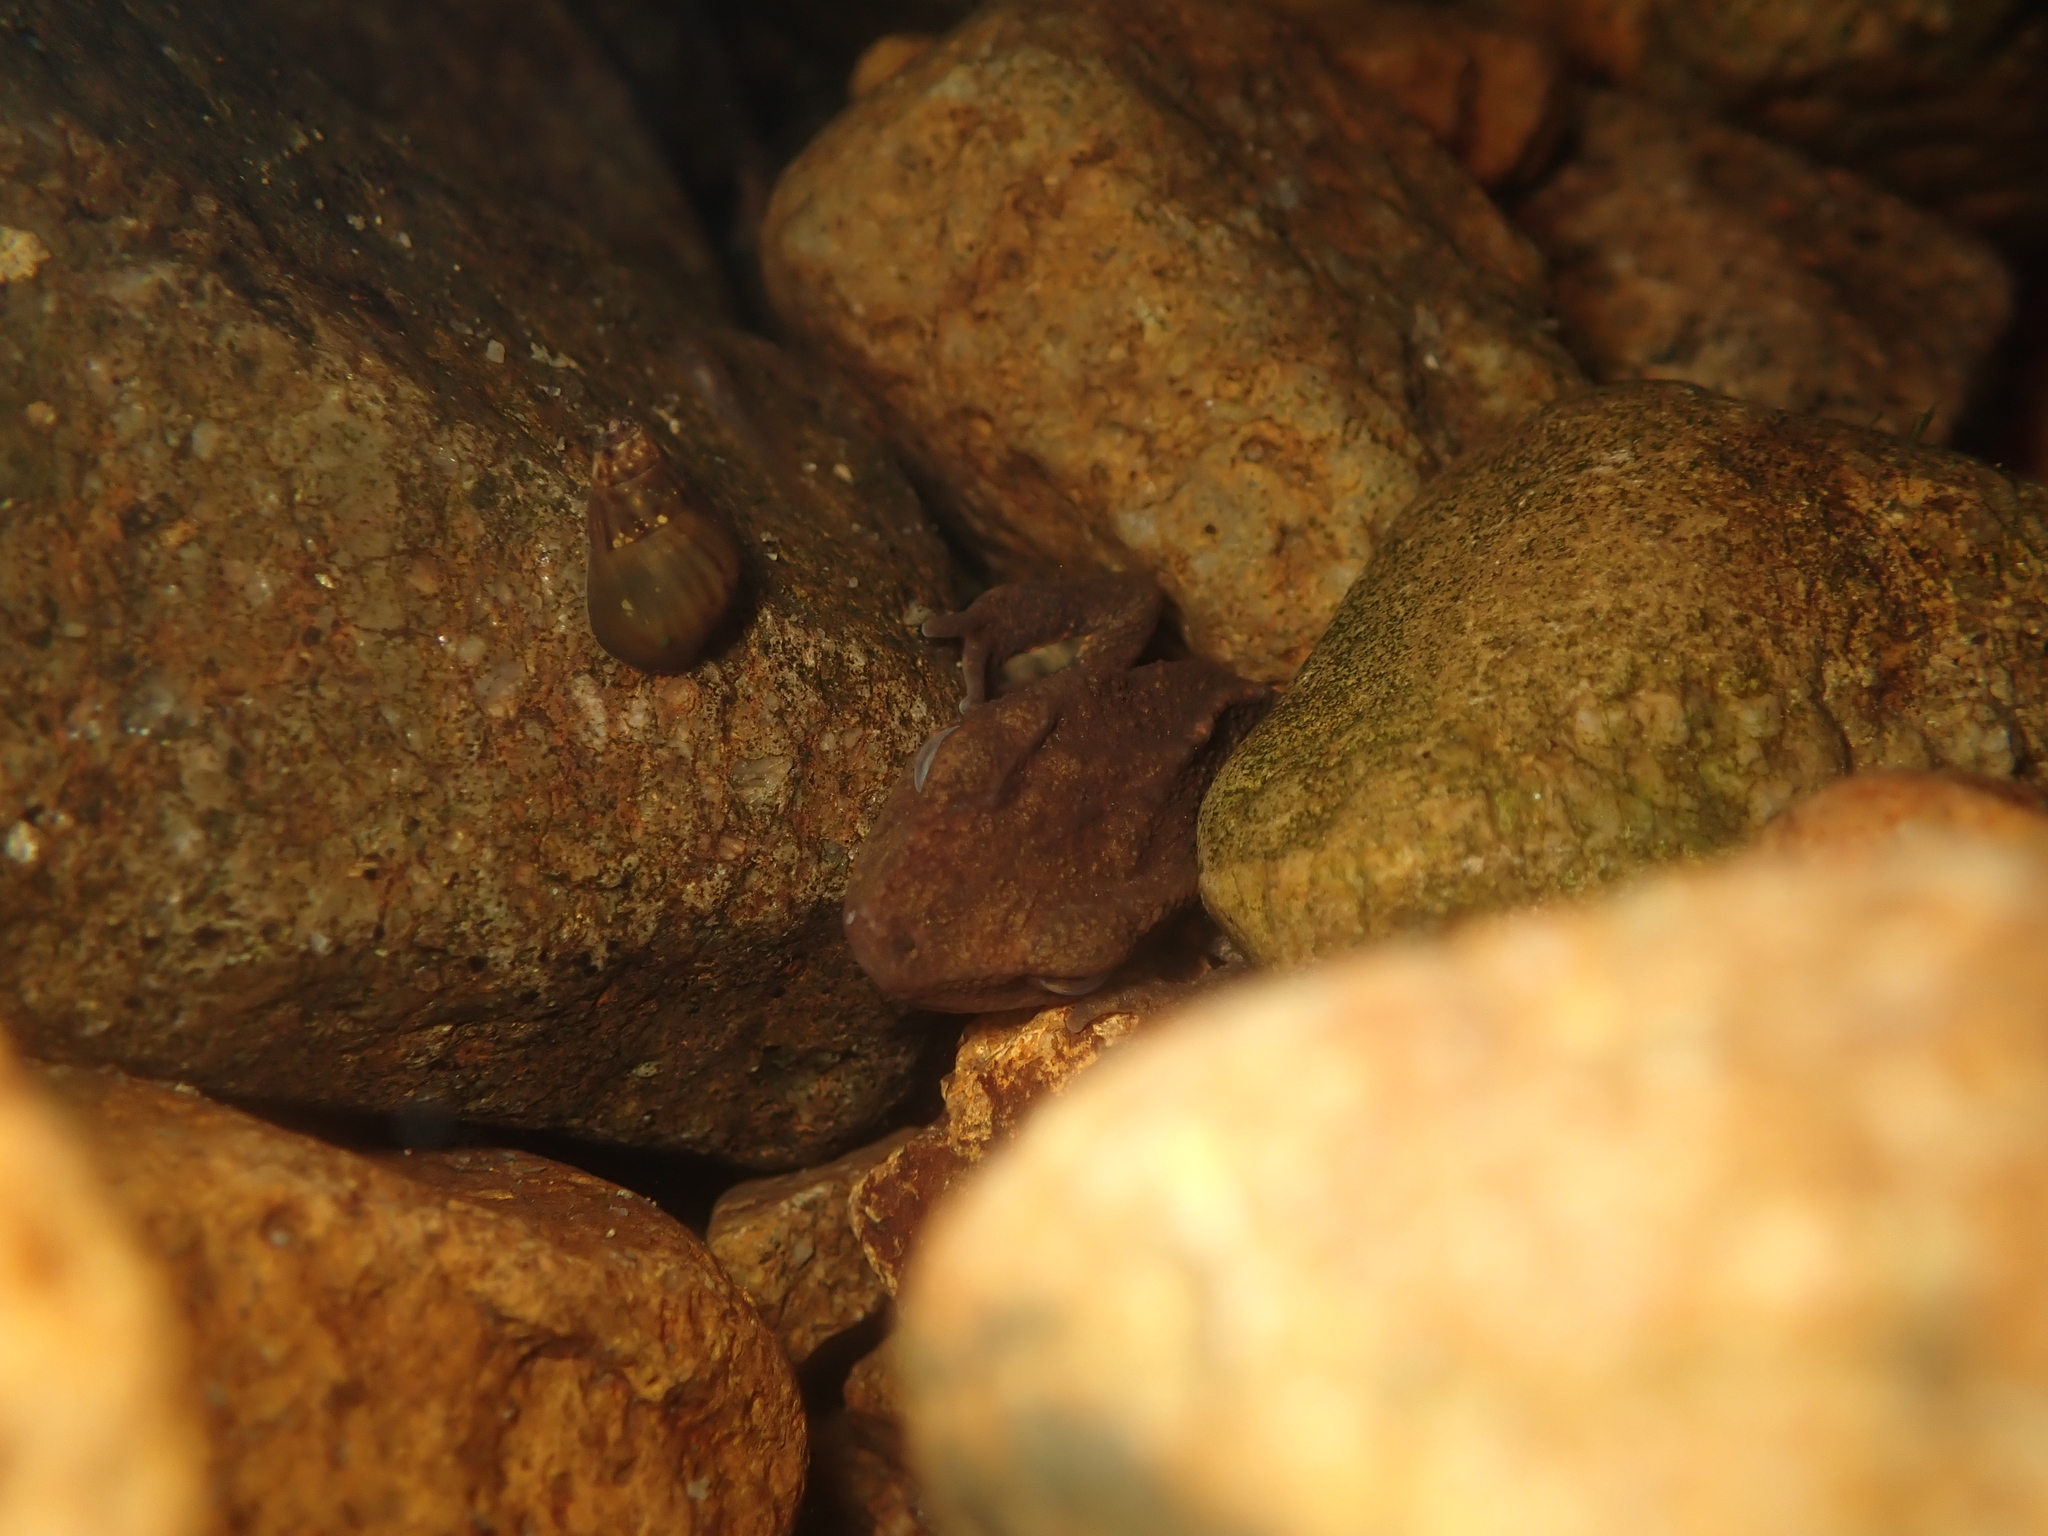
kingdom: Animalia
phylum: Chordata
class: Amphibia
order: Caudata
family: Salamandridae
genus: Paramesotriton
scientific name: Paramesotriton hongkongensis
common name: Hong kong warty newt
